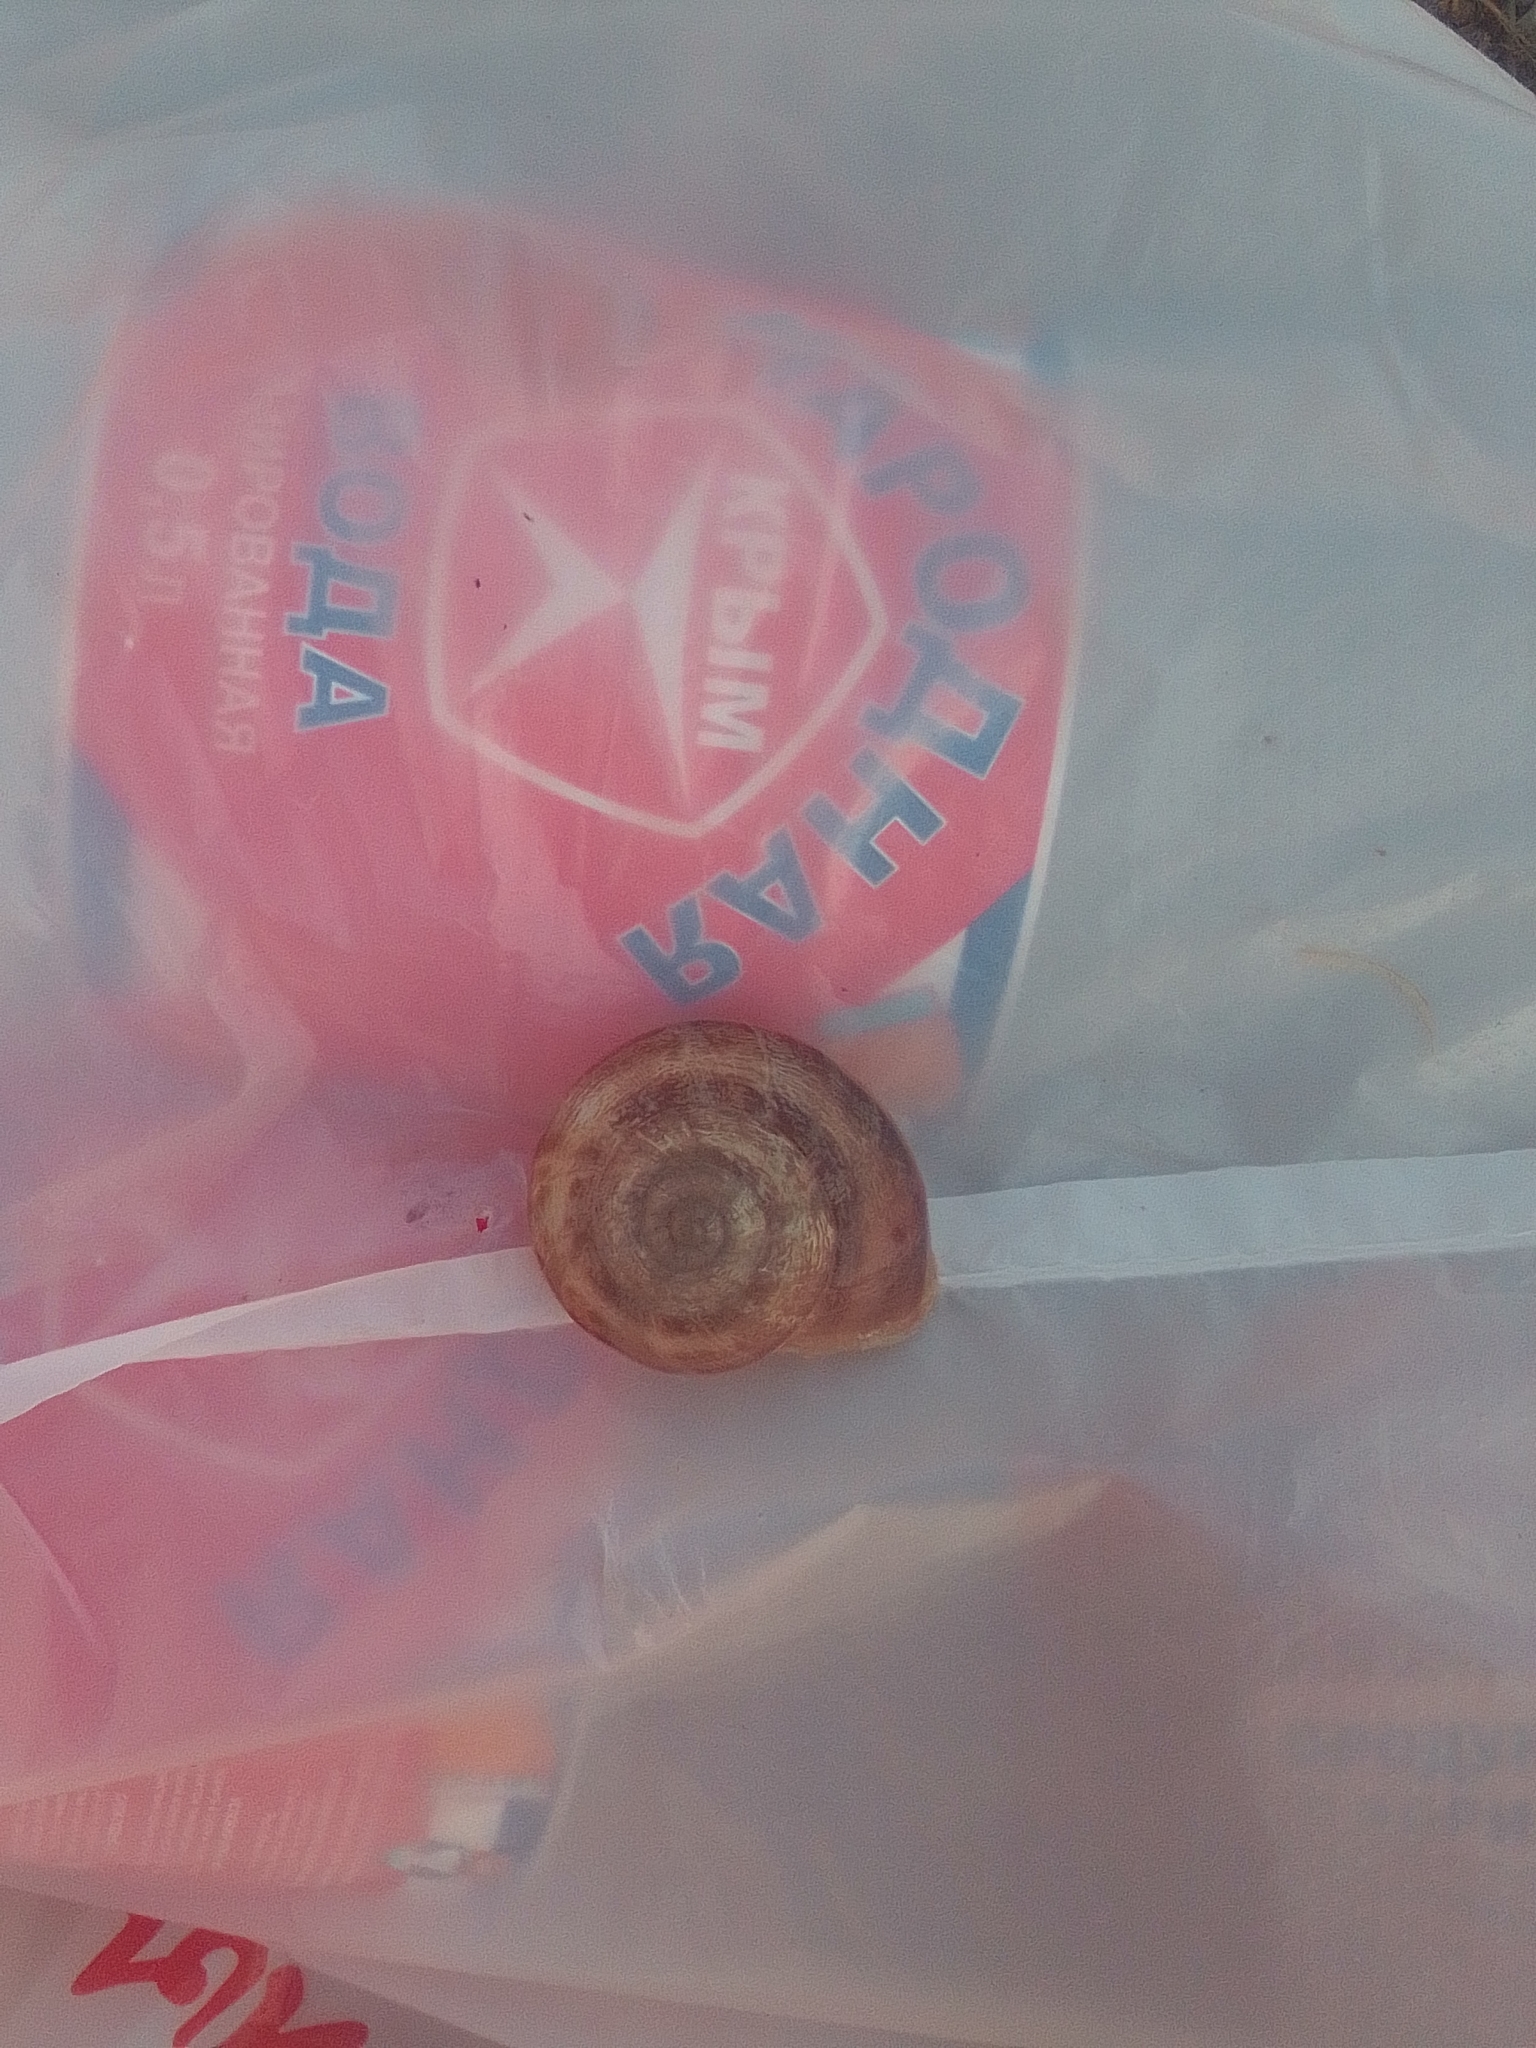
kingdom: Animalia
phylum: Mollusca
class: Gastropoda
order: Stylommatophora
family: Helicidae
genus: Eobania
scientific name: Eobania vermiculata
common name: Chocolateband snail
